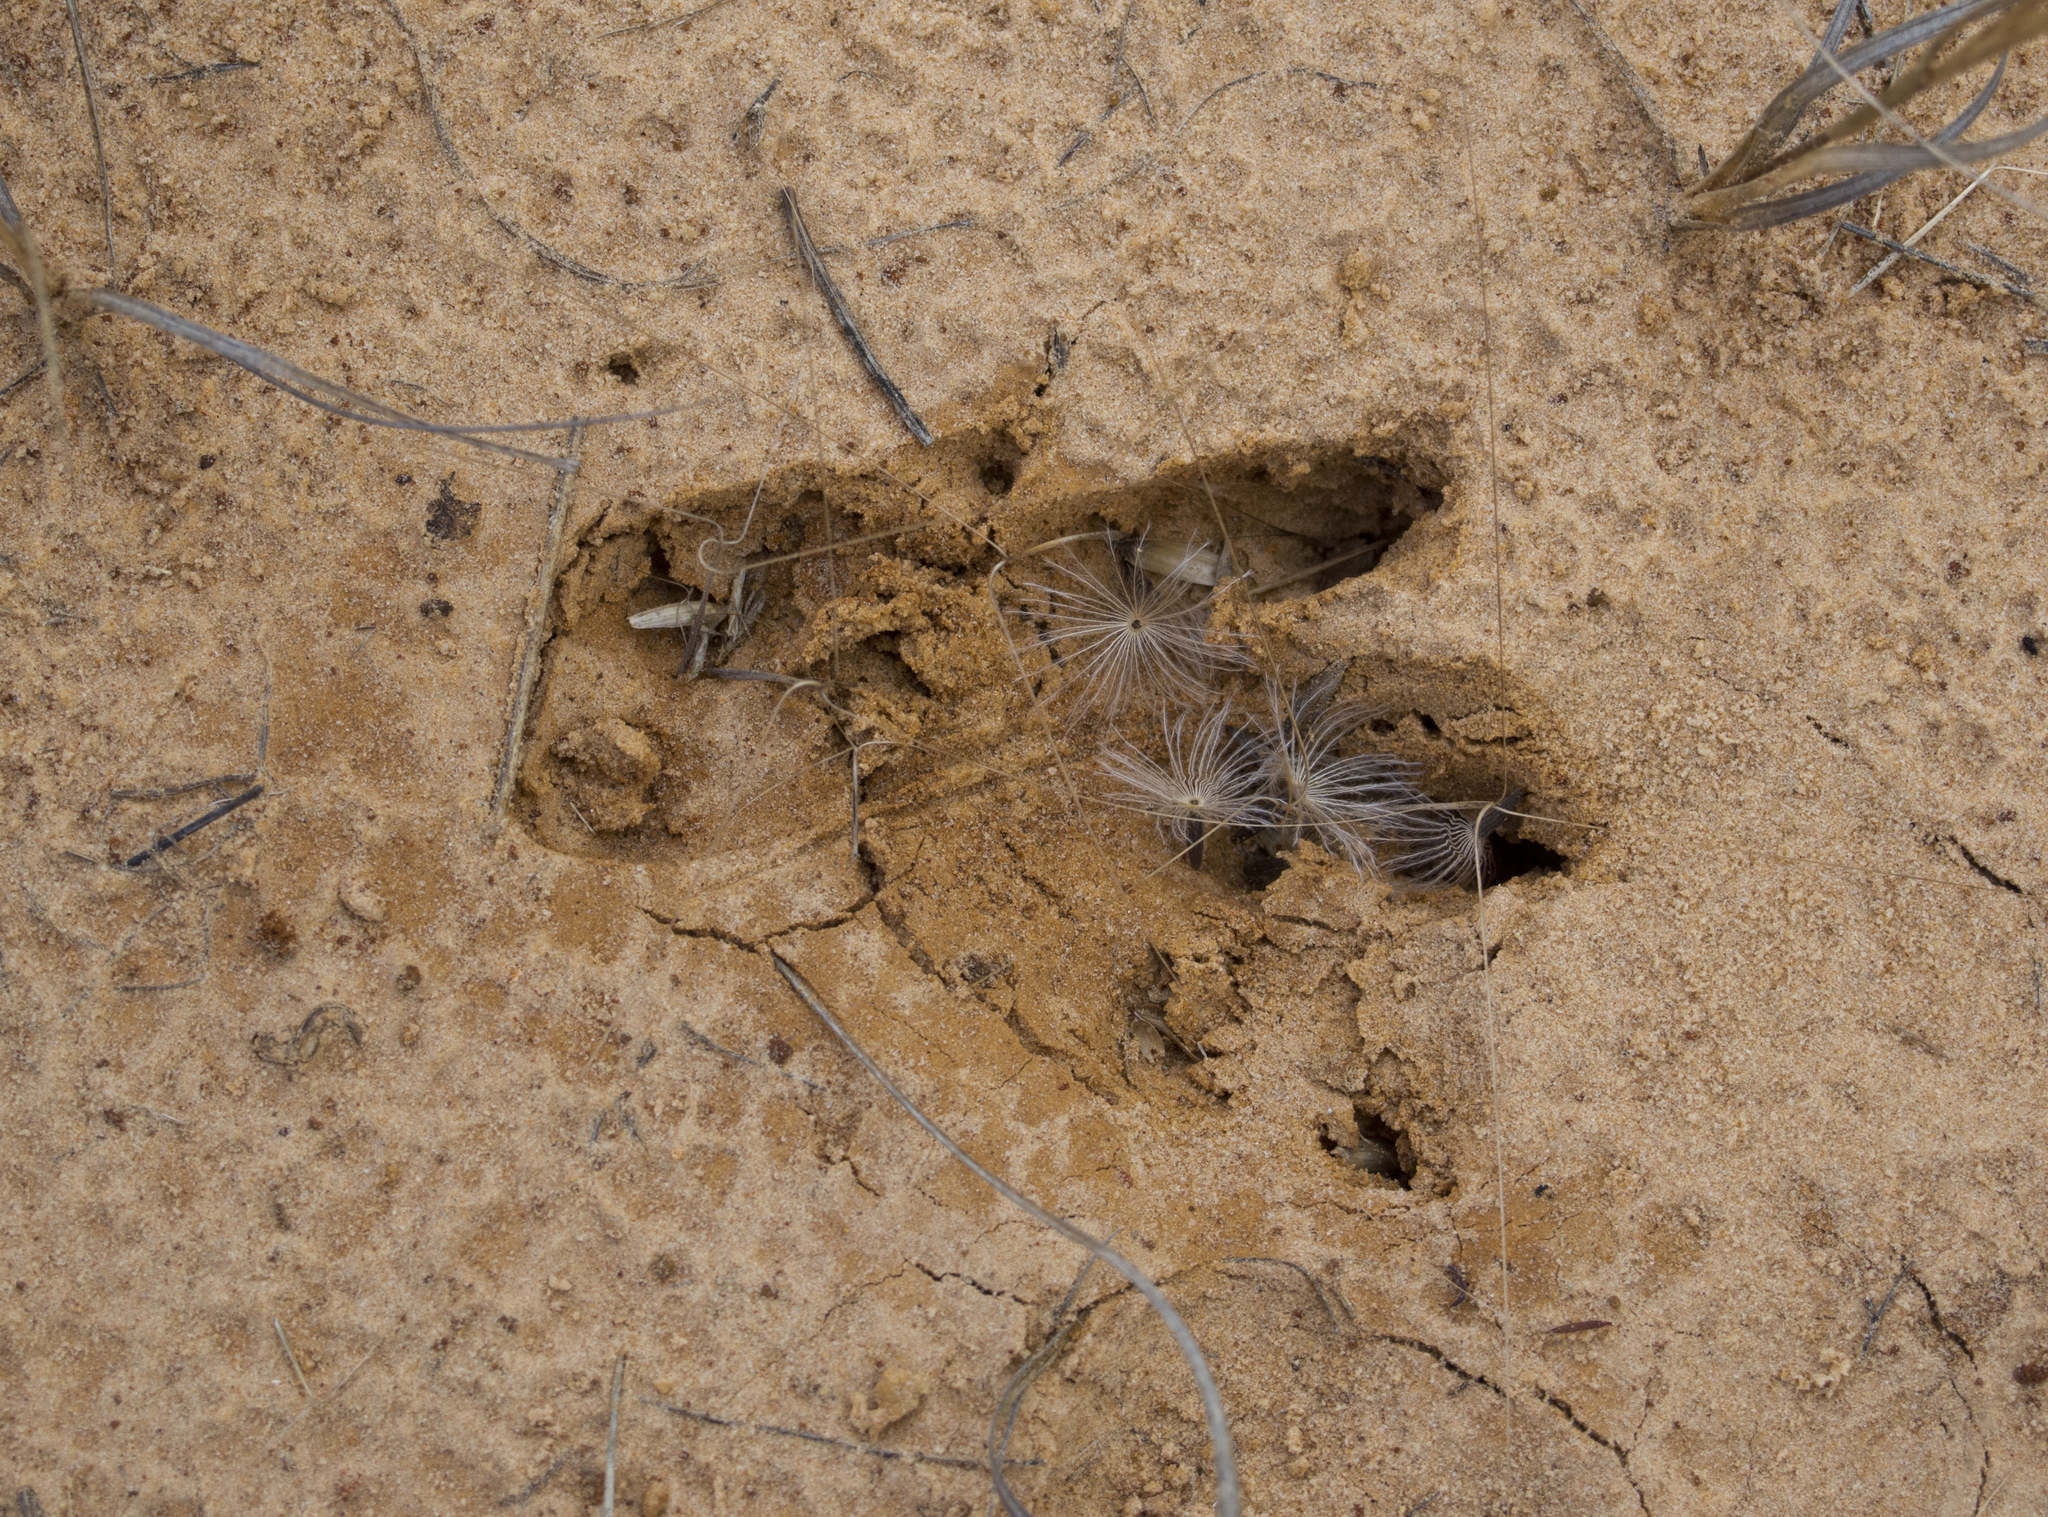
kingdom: Animalia
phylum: Chordata
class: Mammalia
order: Cingulata
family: Dasypodidae
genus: Dasypus
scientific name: Dasypus novemcinctus
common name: Nine-banded armadillo
